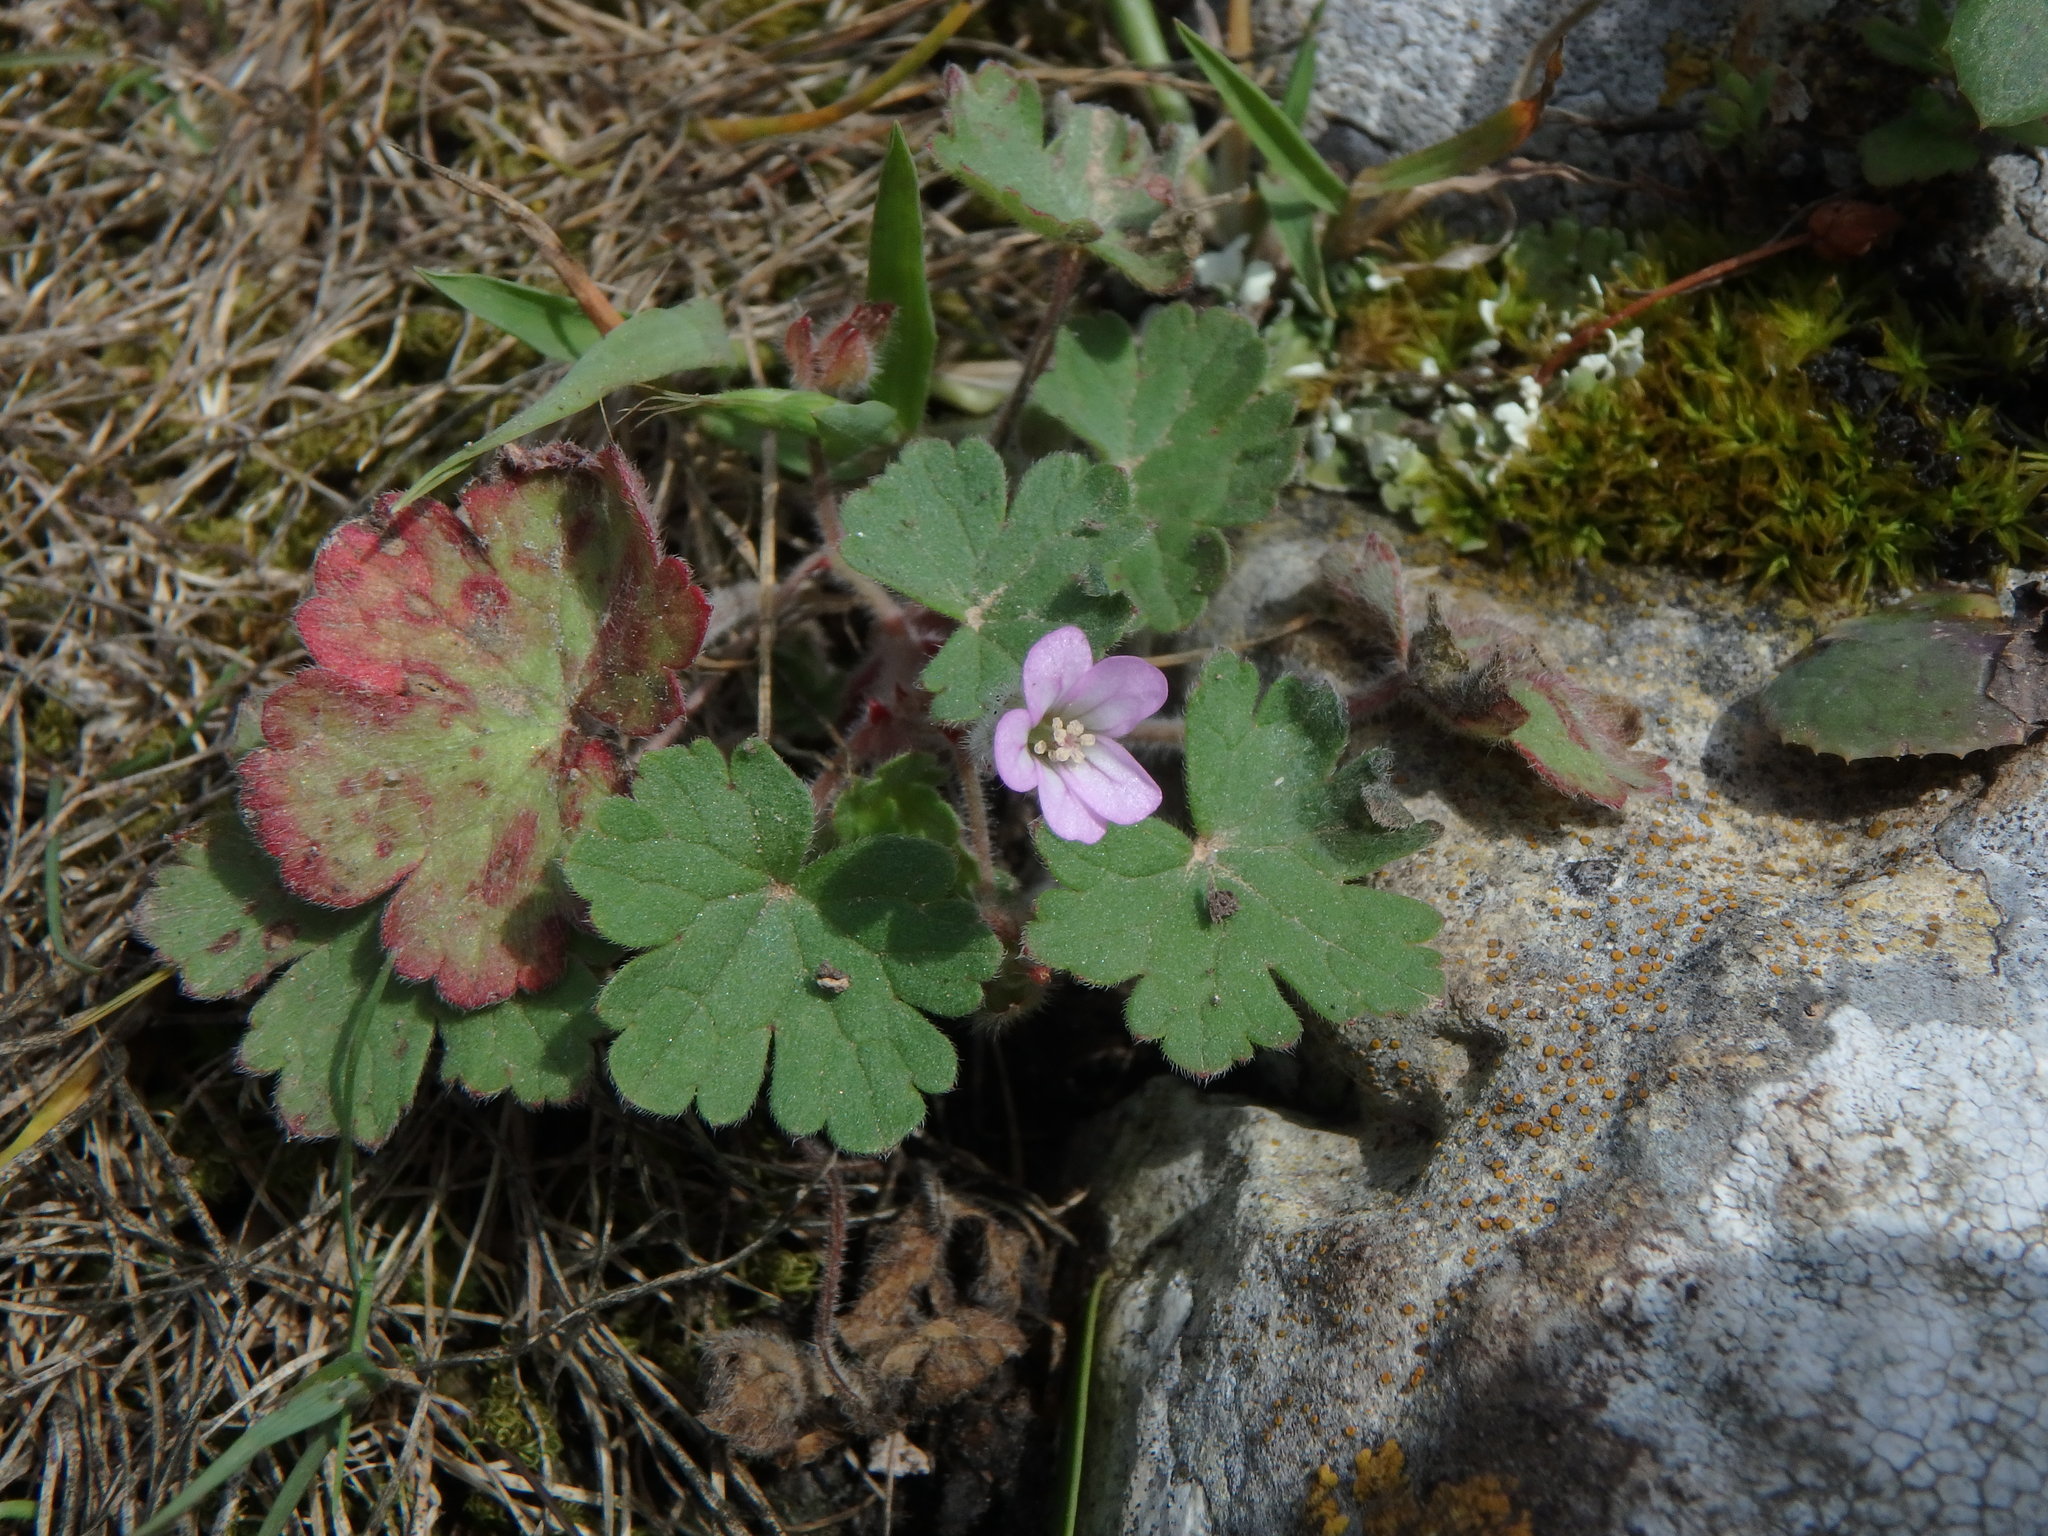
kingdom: Plantae
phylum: Tracheophyta
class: Magnoliopsida
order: Geraniales
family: Geraniaceae
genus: Geranium
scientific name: Geranium rotundifolium
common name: Round-leaved crane's-bill
